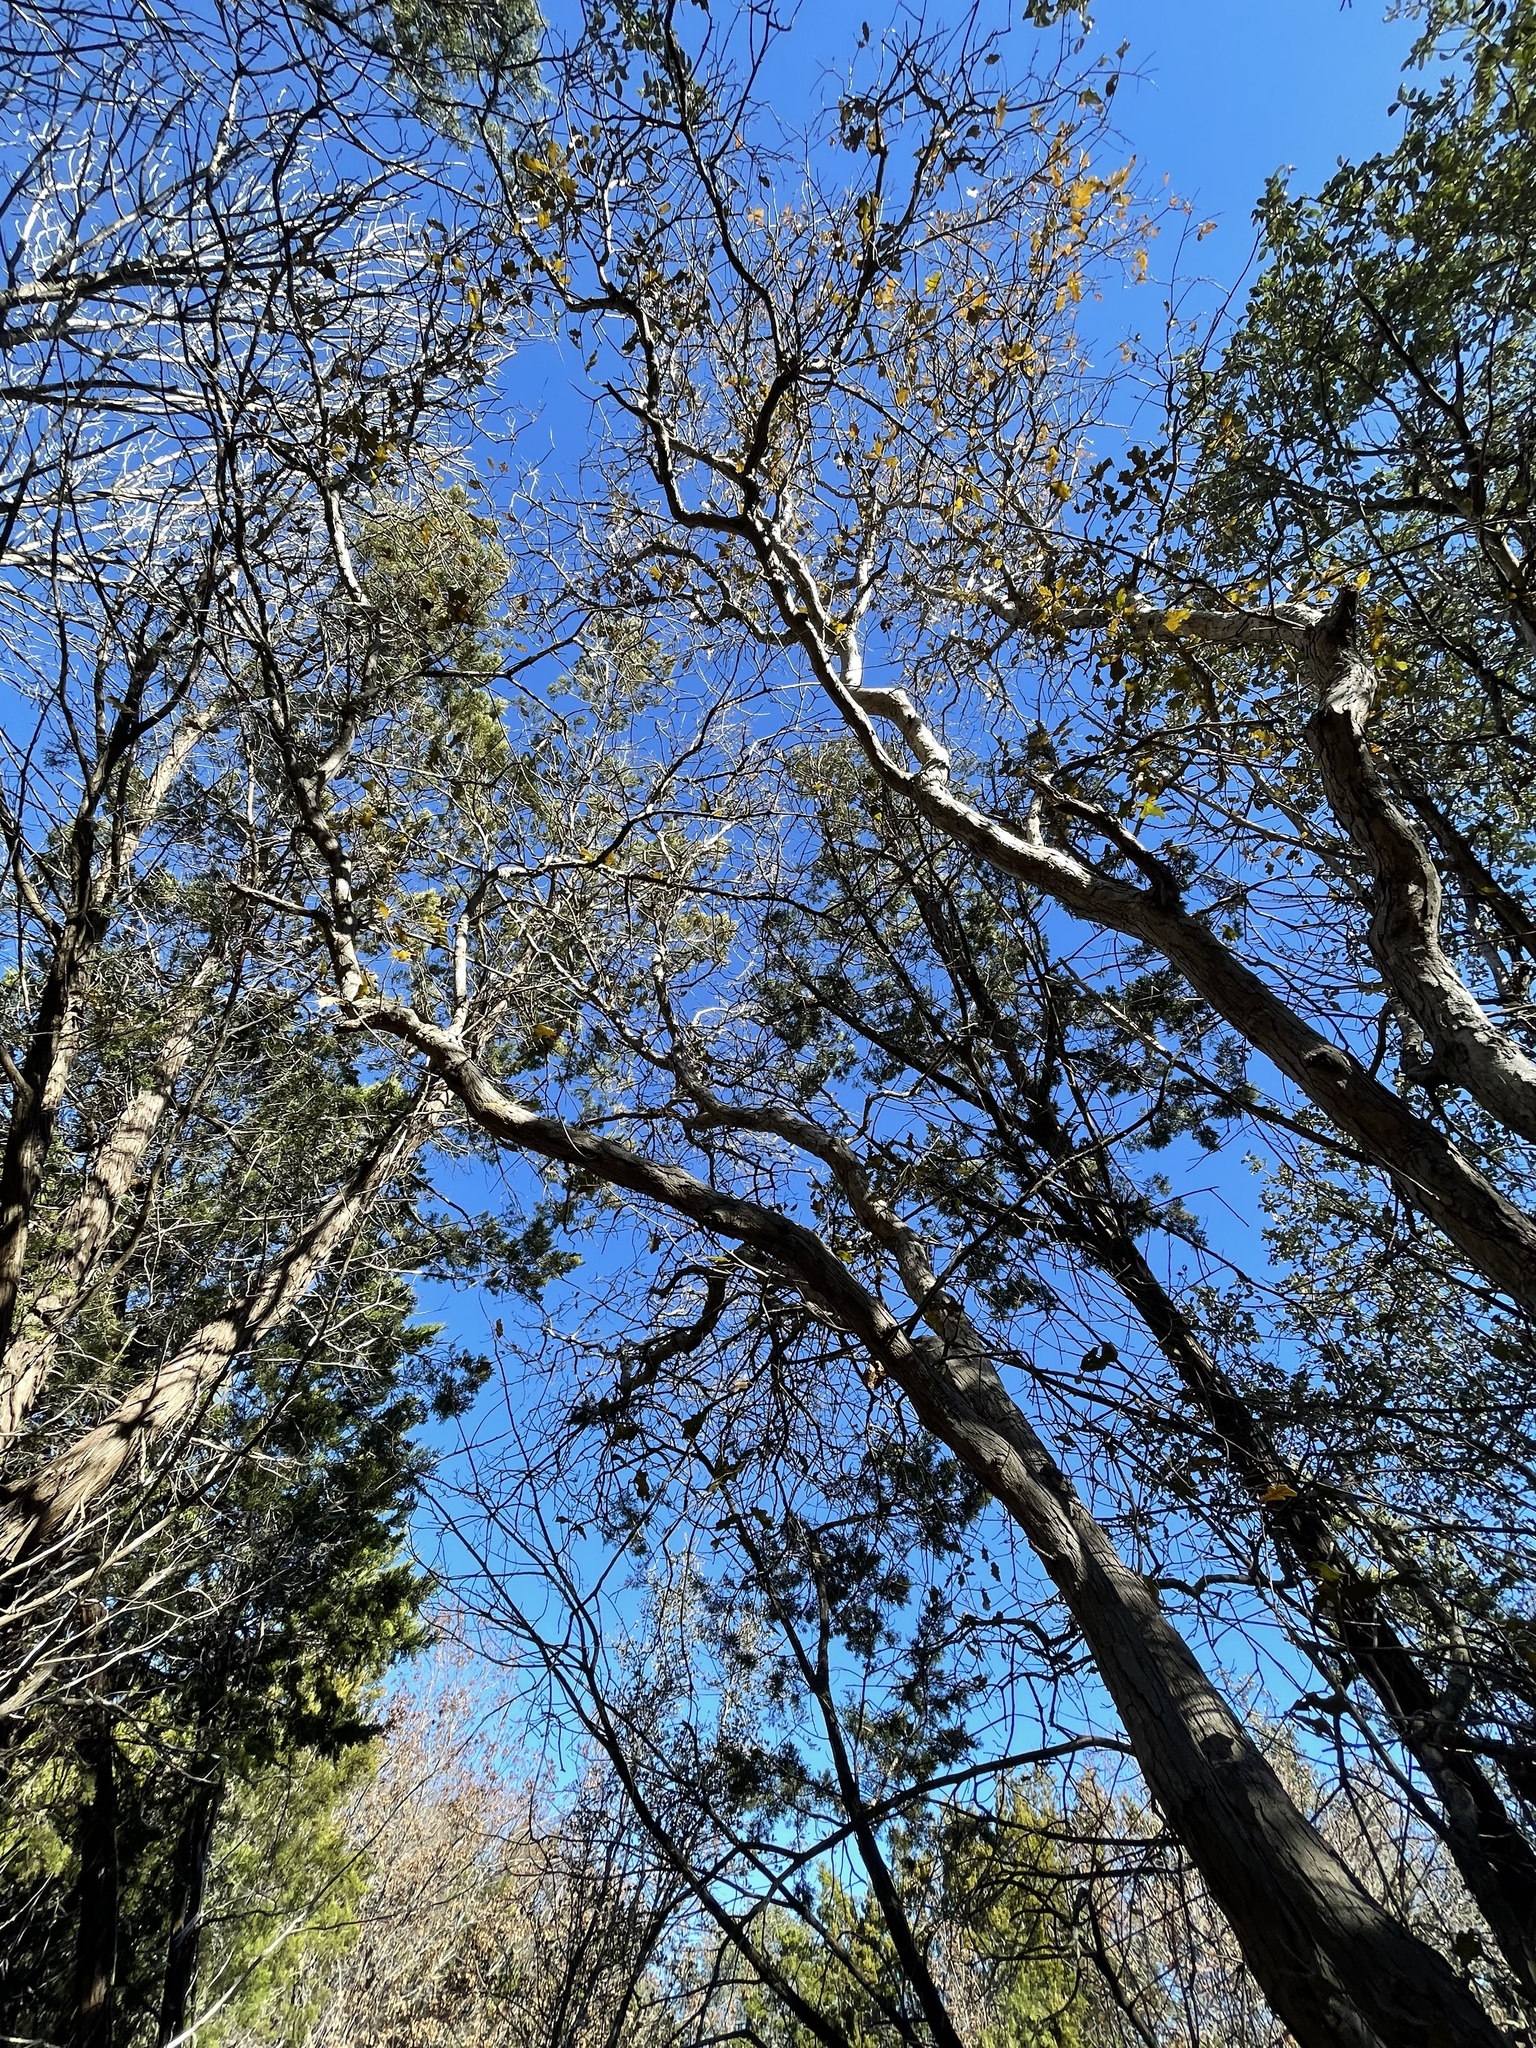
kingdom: Plantae
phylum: Tracheophyta
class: Magnoliopsida
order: Fagales
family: Fagaceae
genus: Quercus
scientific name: Quercus sinuata
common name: Durand oak
